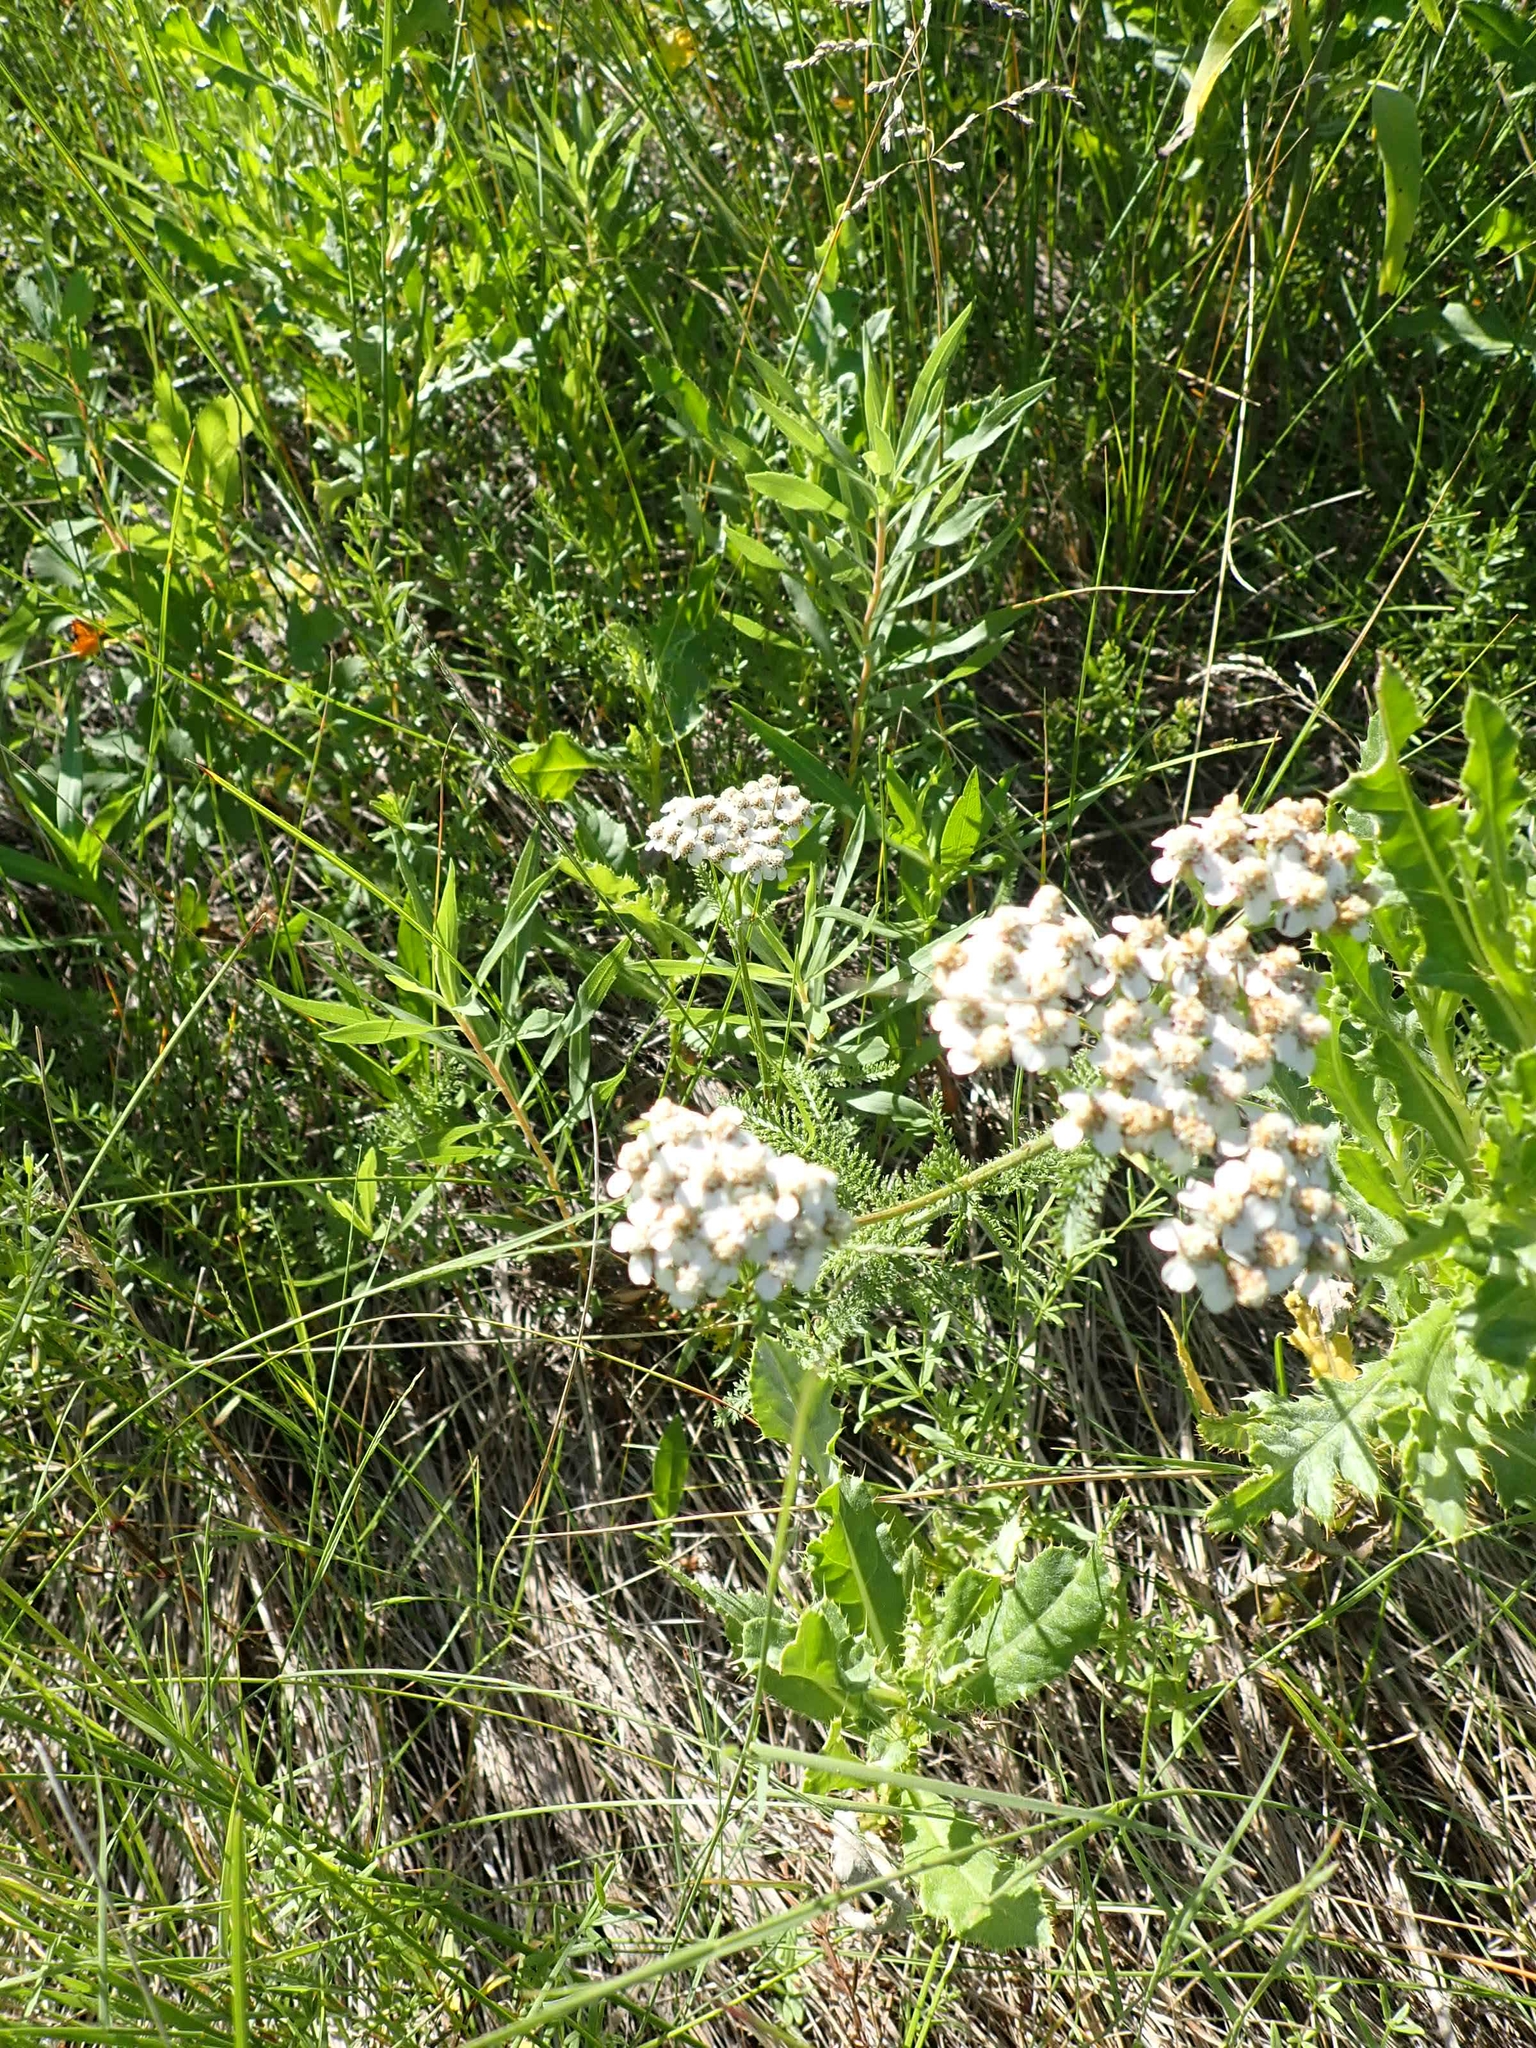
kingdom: Plantae
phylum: Tracheophyta
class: Magnoliopsida
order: Asterales
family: Asteraceae
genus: Achillea
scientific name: Achillea millefolium
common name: Yarrow
